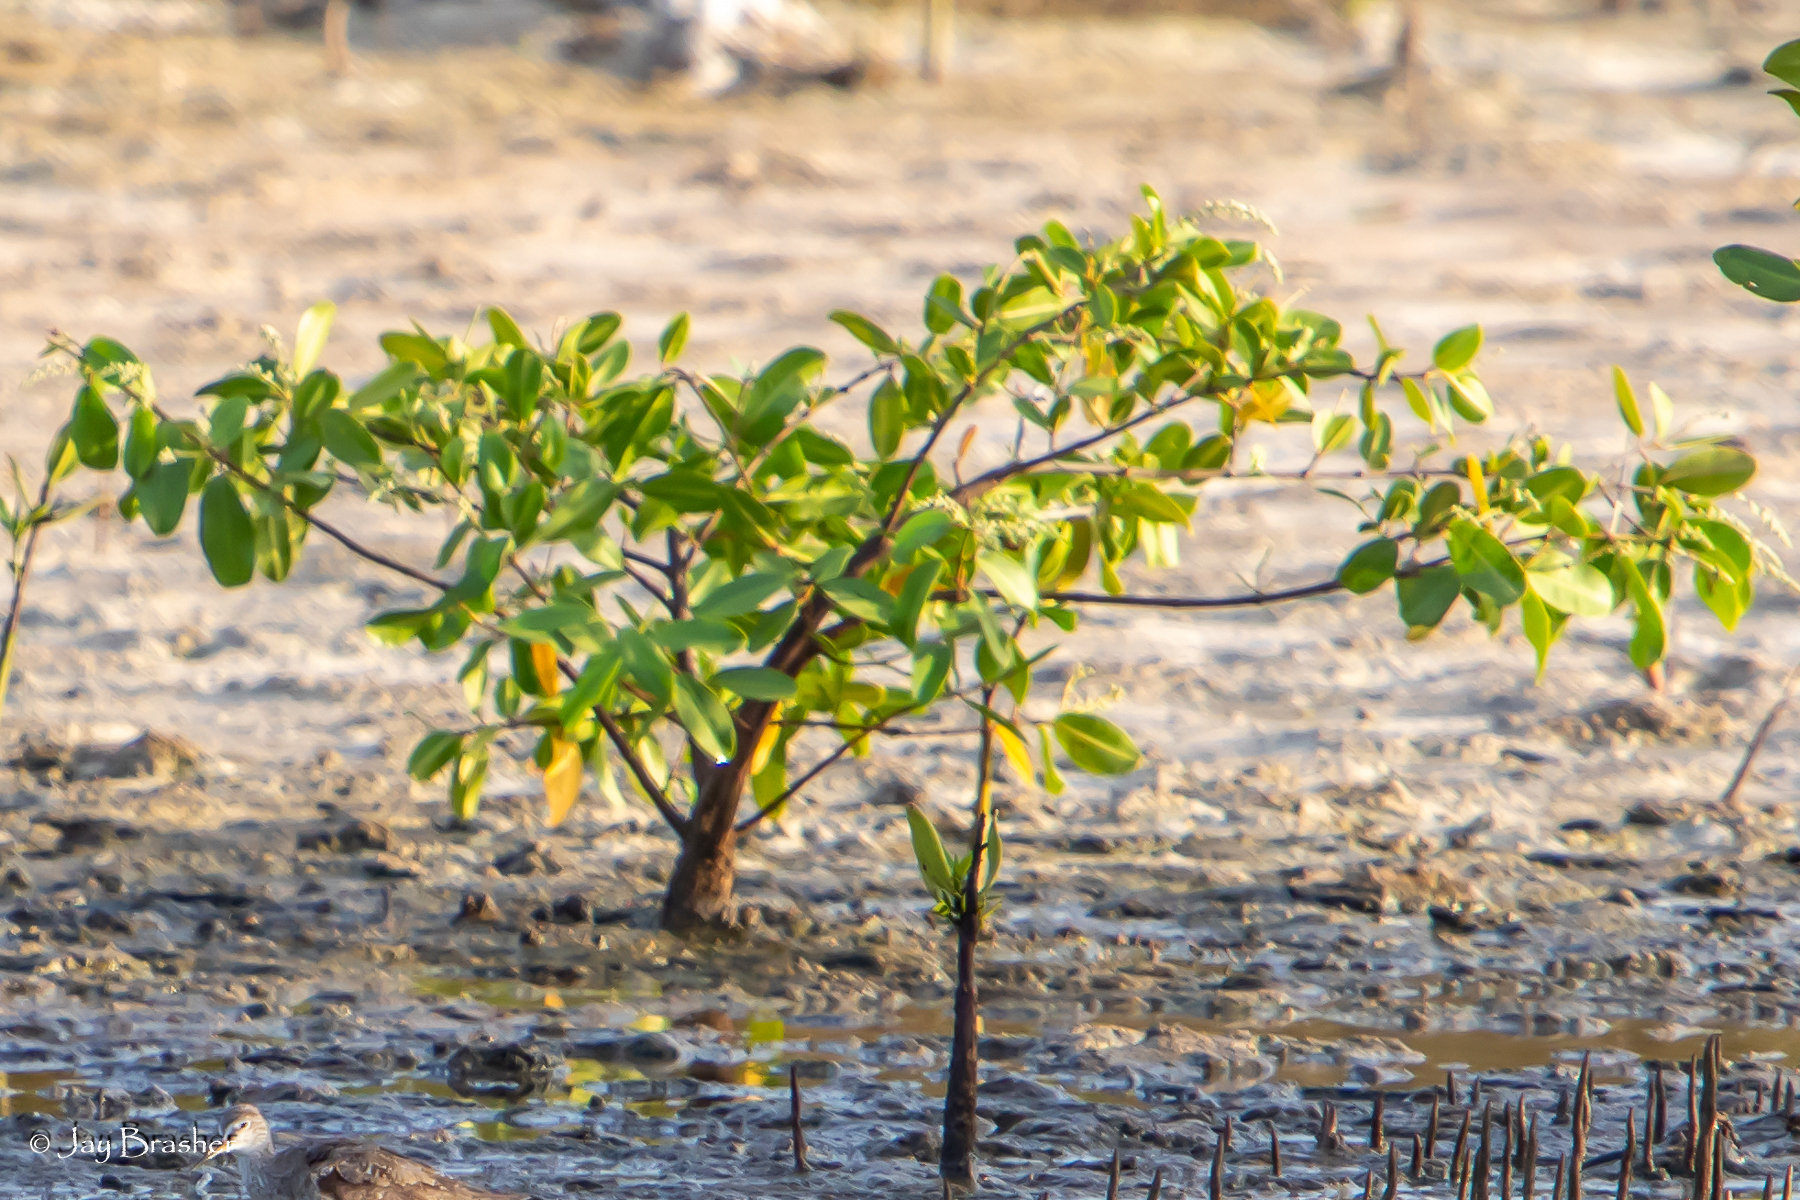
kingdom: Plantae
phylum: Tracheophyta
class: Magnoliopsida
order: Myrtales
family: Combretaceae
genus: Laguncularia
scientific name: Laguncularia racemosa
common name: White mangrove
